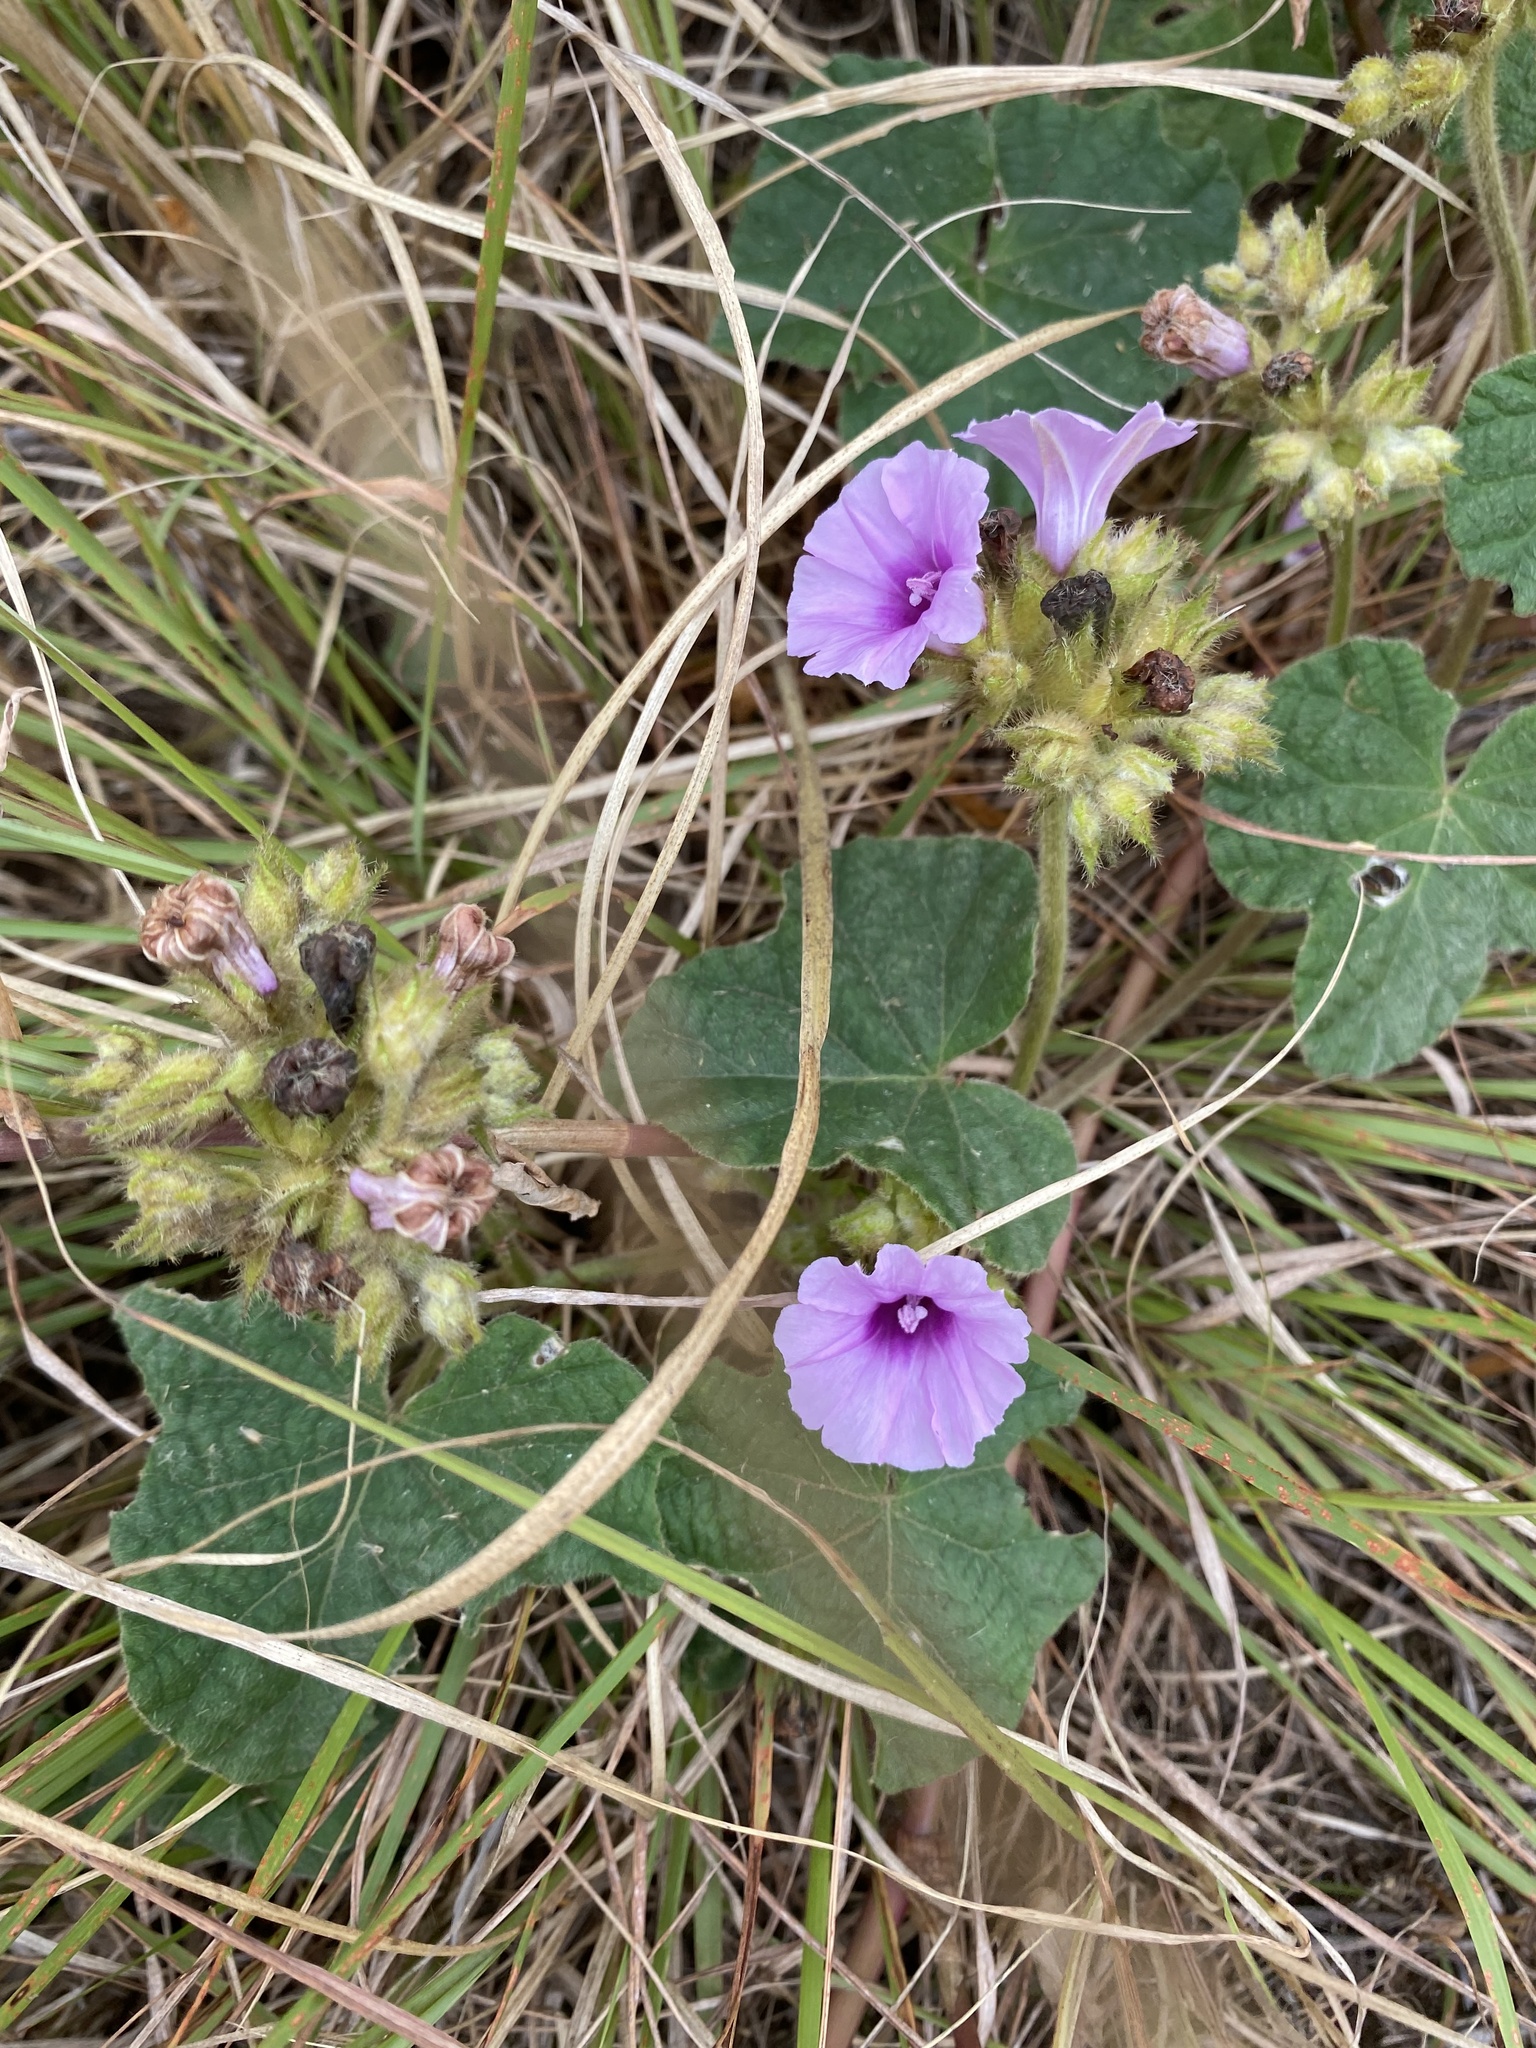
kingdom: Plantae
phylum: Tracheophyta
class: Magnoliopsida
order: Solanales
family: Convolvulaceae
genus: Ipomoea
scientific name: Ipomoea wightii
